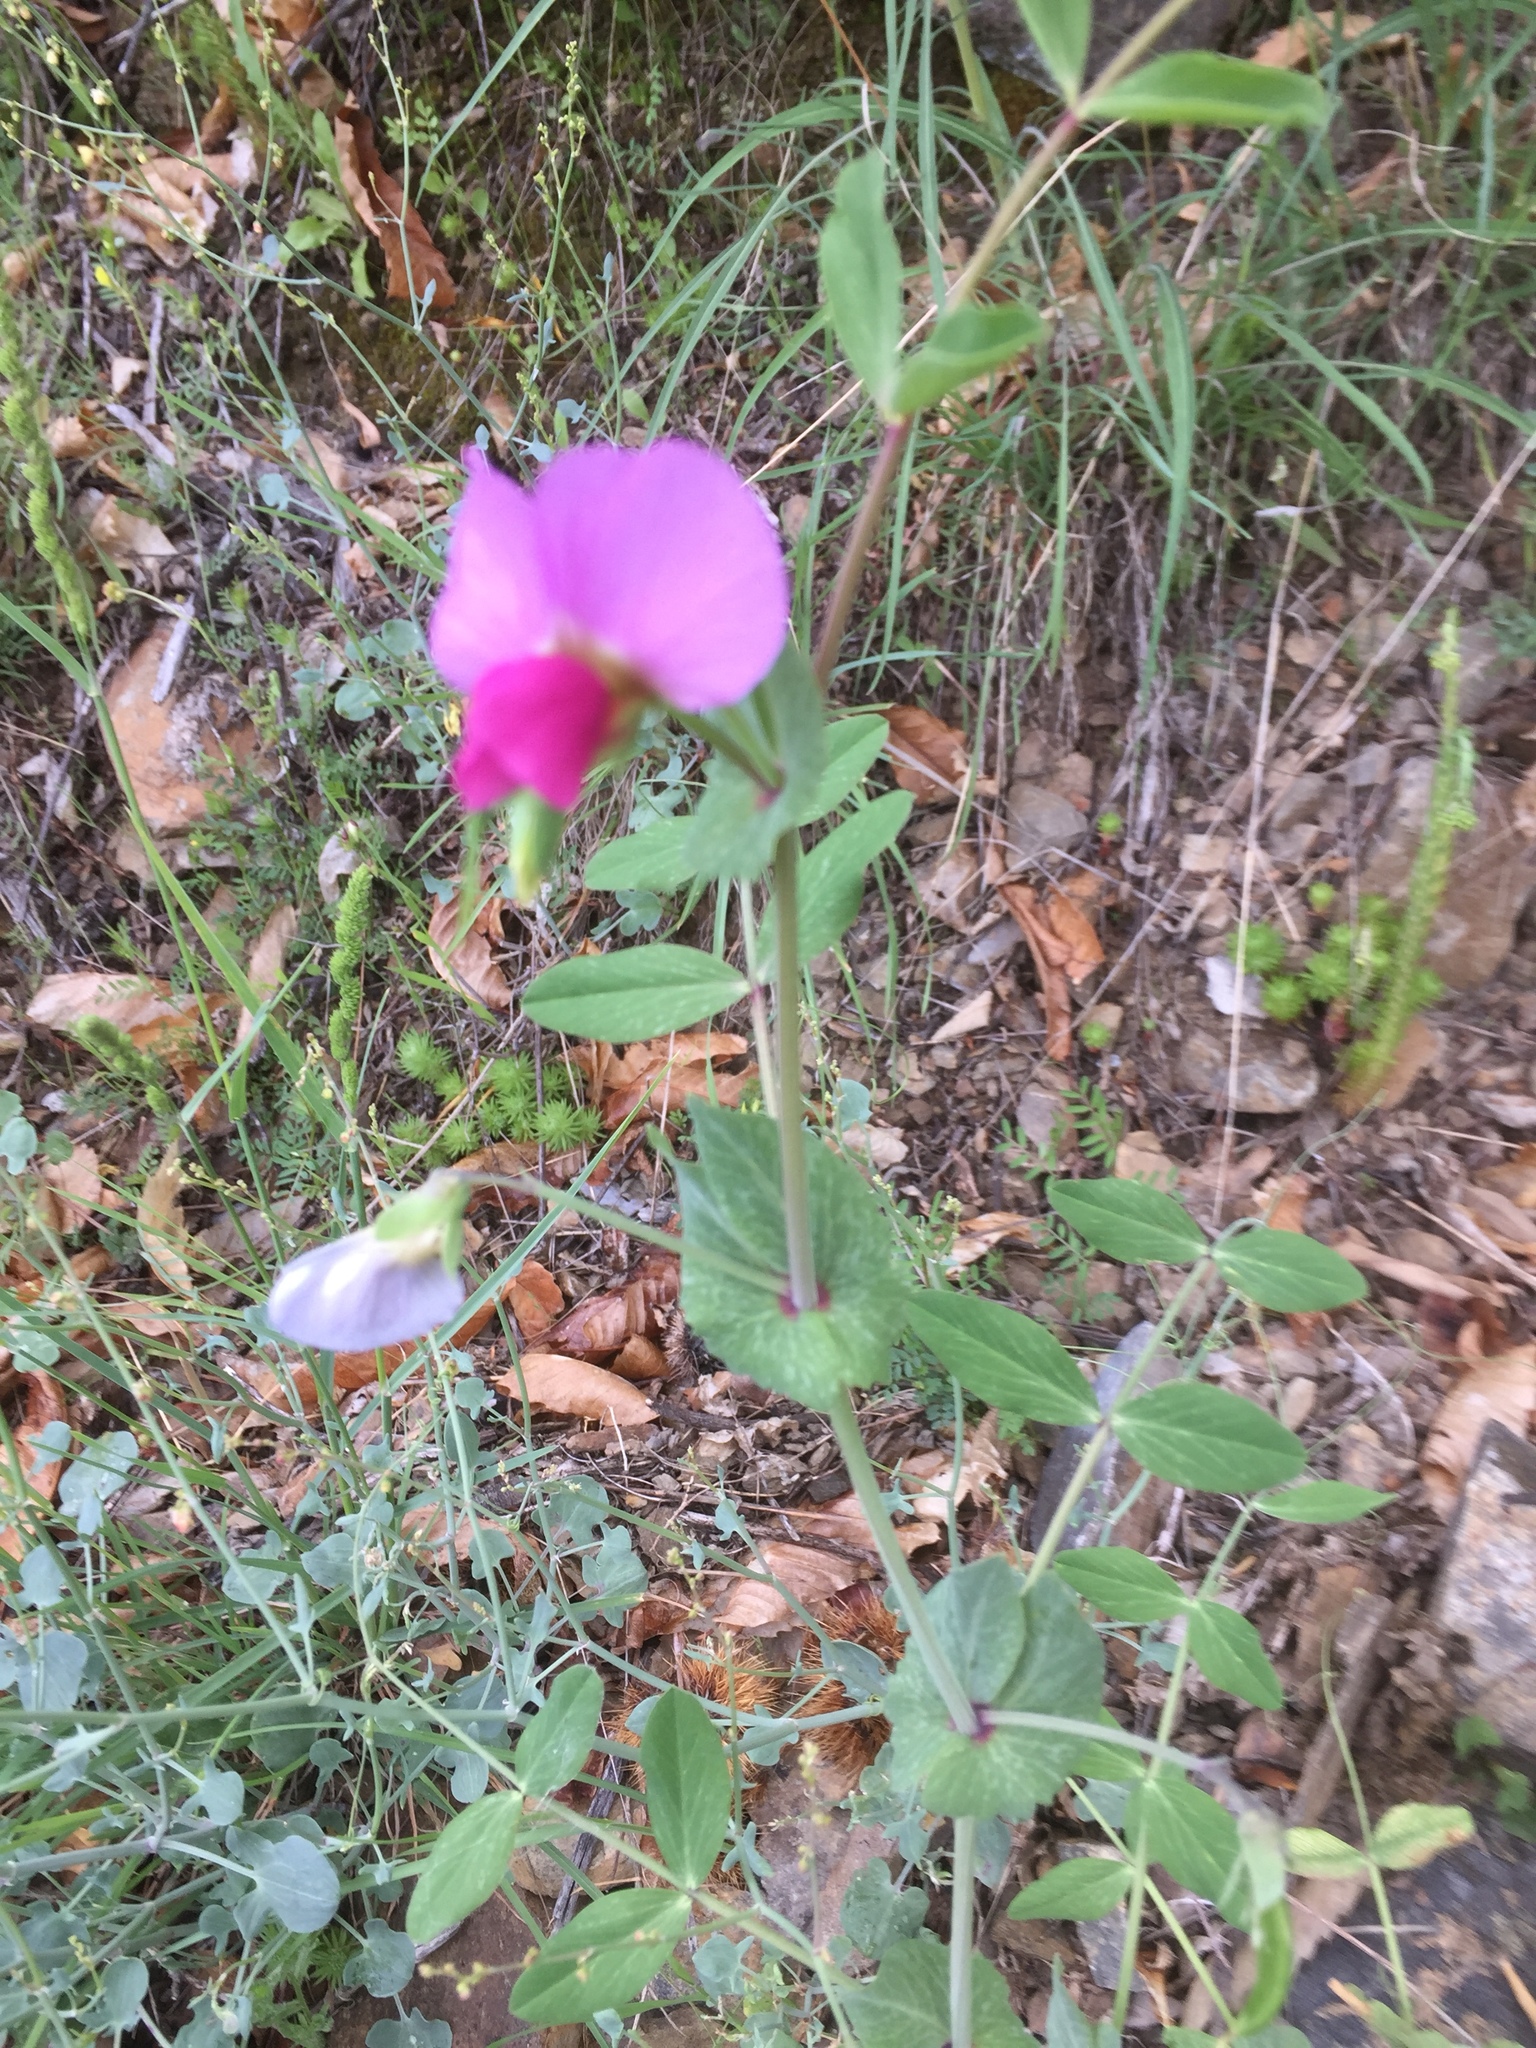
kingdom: Plantae
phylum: Tracheophyta
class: Magnoliopsida
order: Fabales
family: Fabaceae
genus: Lathyrus
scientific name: Lathyrus oleraceus
